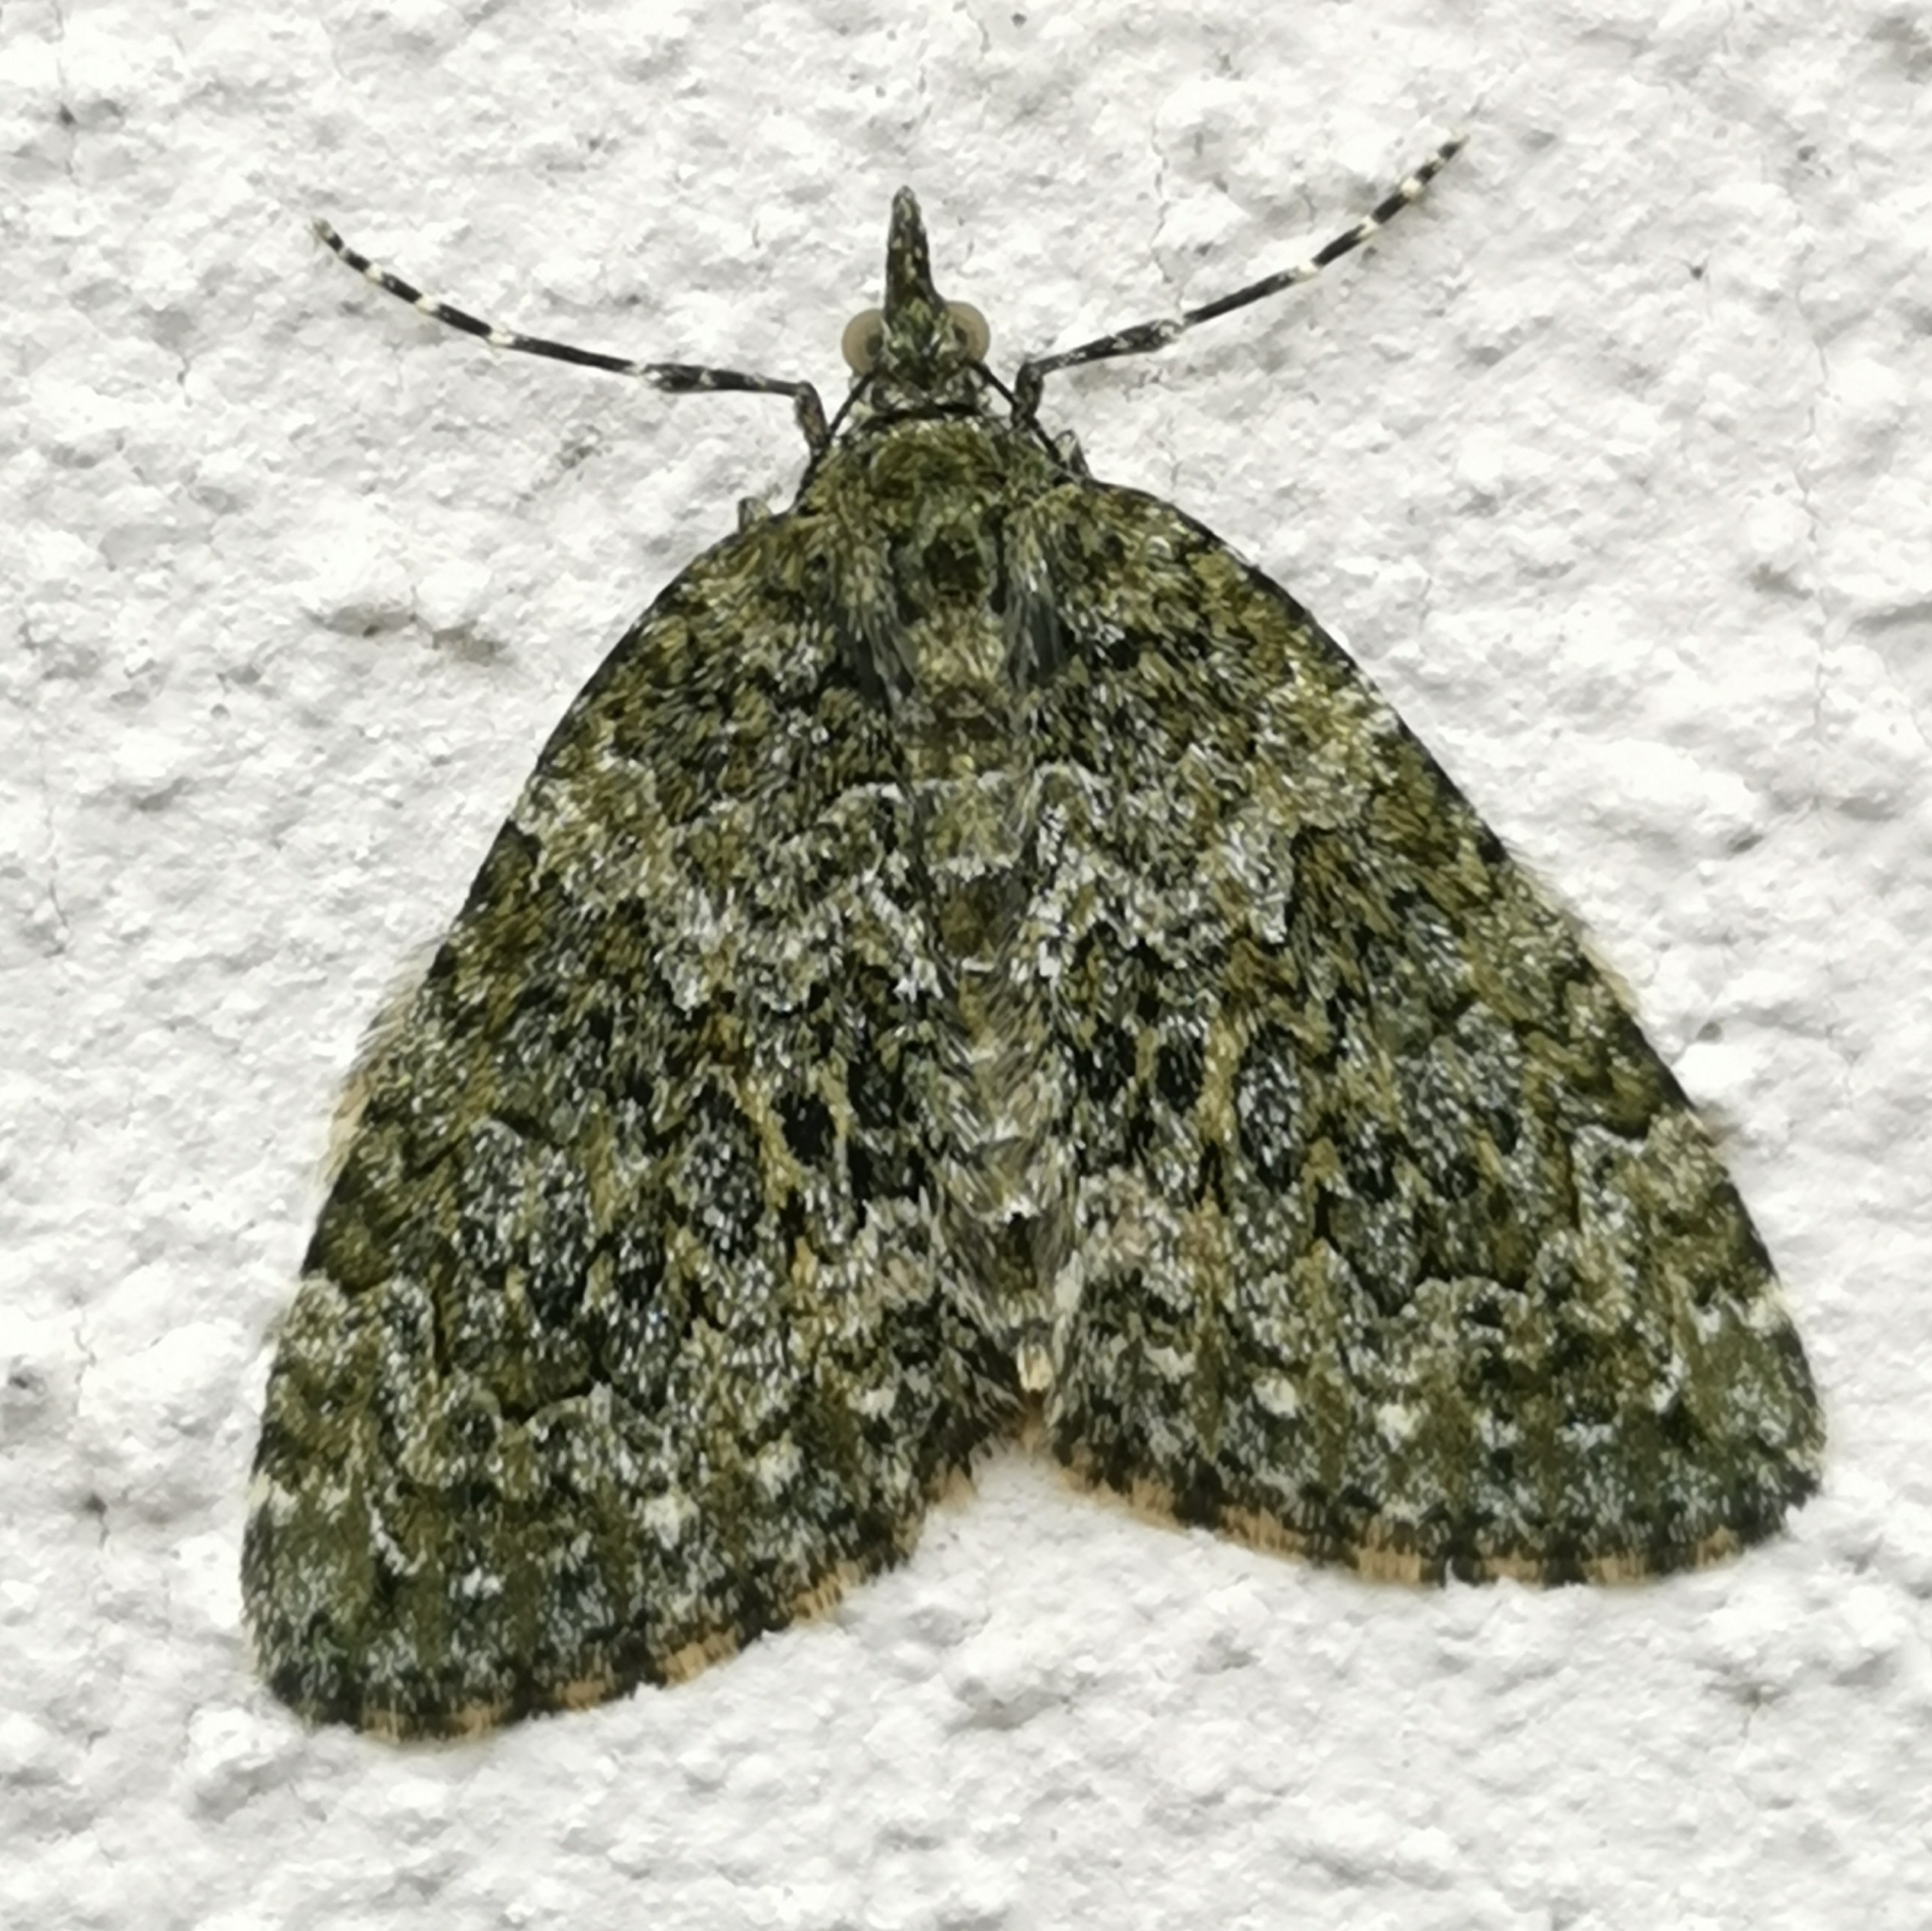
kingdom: Animalia
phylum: Arthropoda
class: Insecta
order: Lepidoptera
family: Geometridae
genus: Chloroclysta
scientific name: Chloroclysta miata
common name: Autumn green carpet
